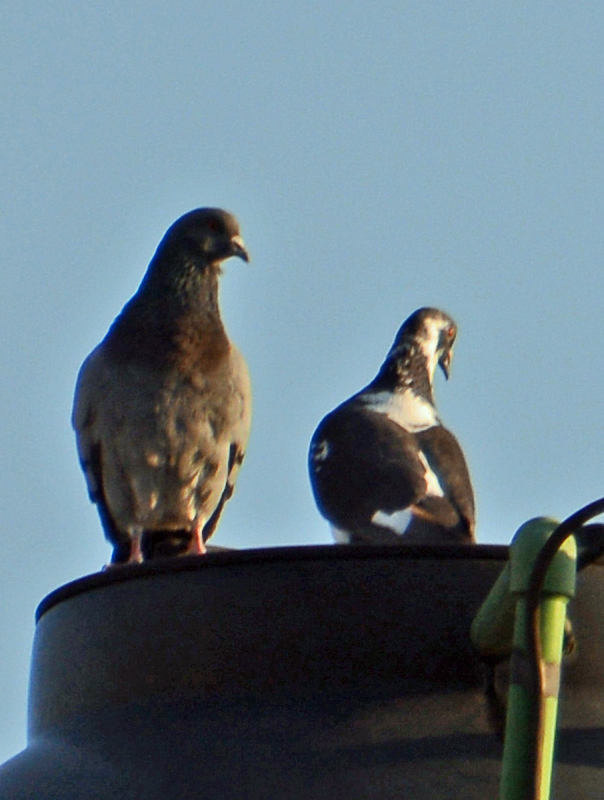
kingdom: Animalia
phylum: Chordata
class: Aves
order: Columbiformes
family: Columbidae
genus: Columba
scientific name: Columba livia
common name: Rock pigeon
